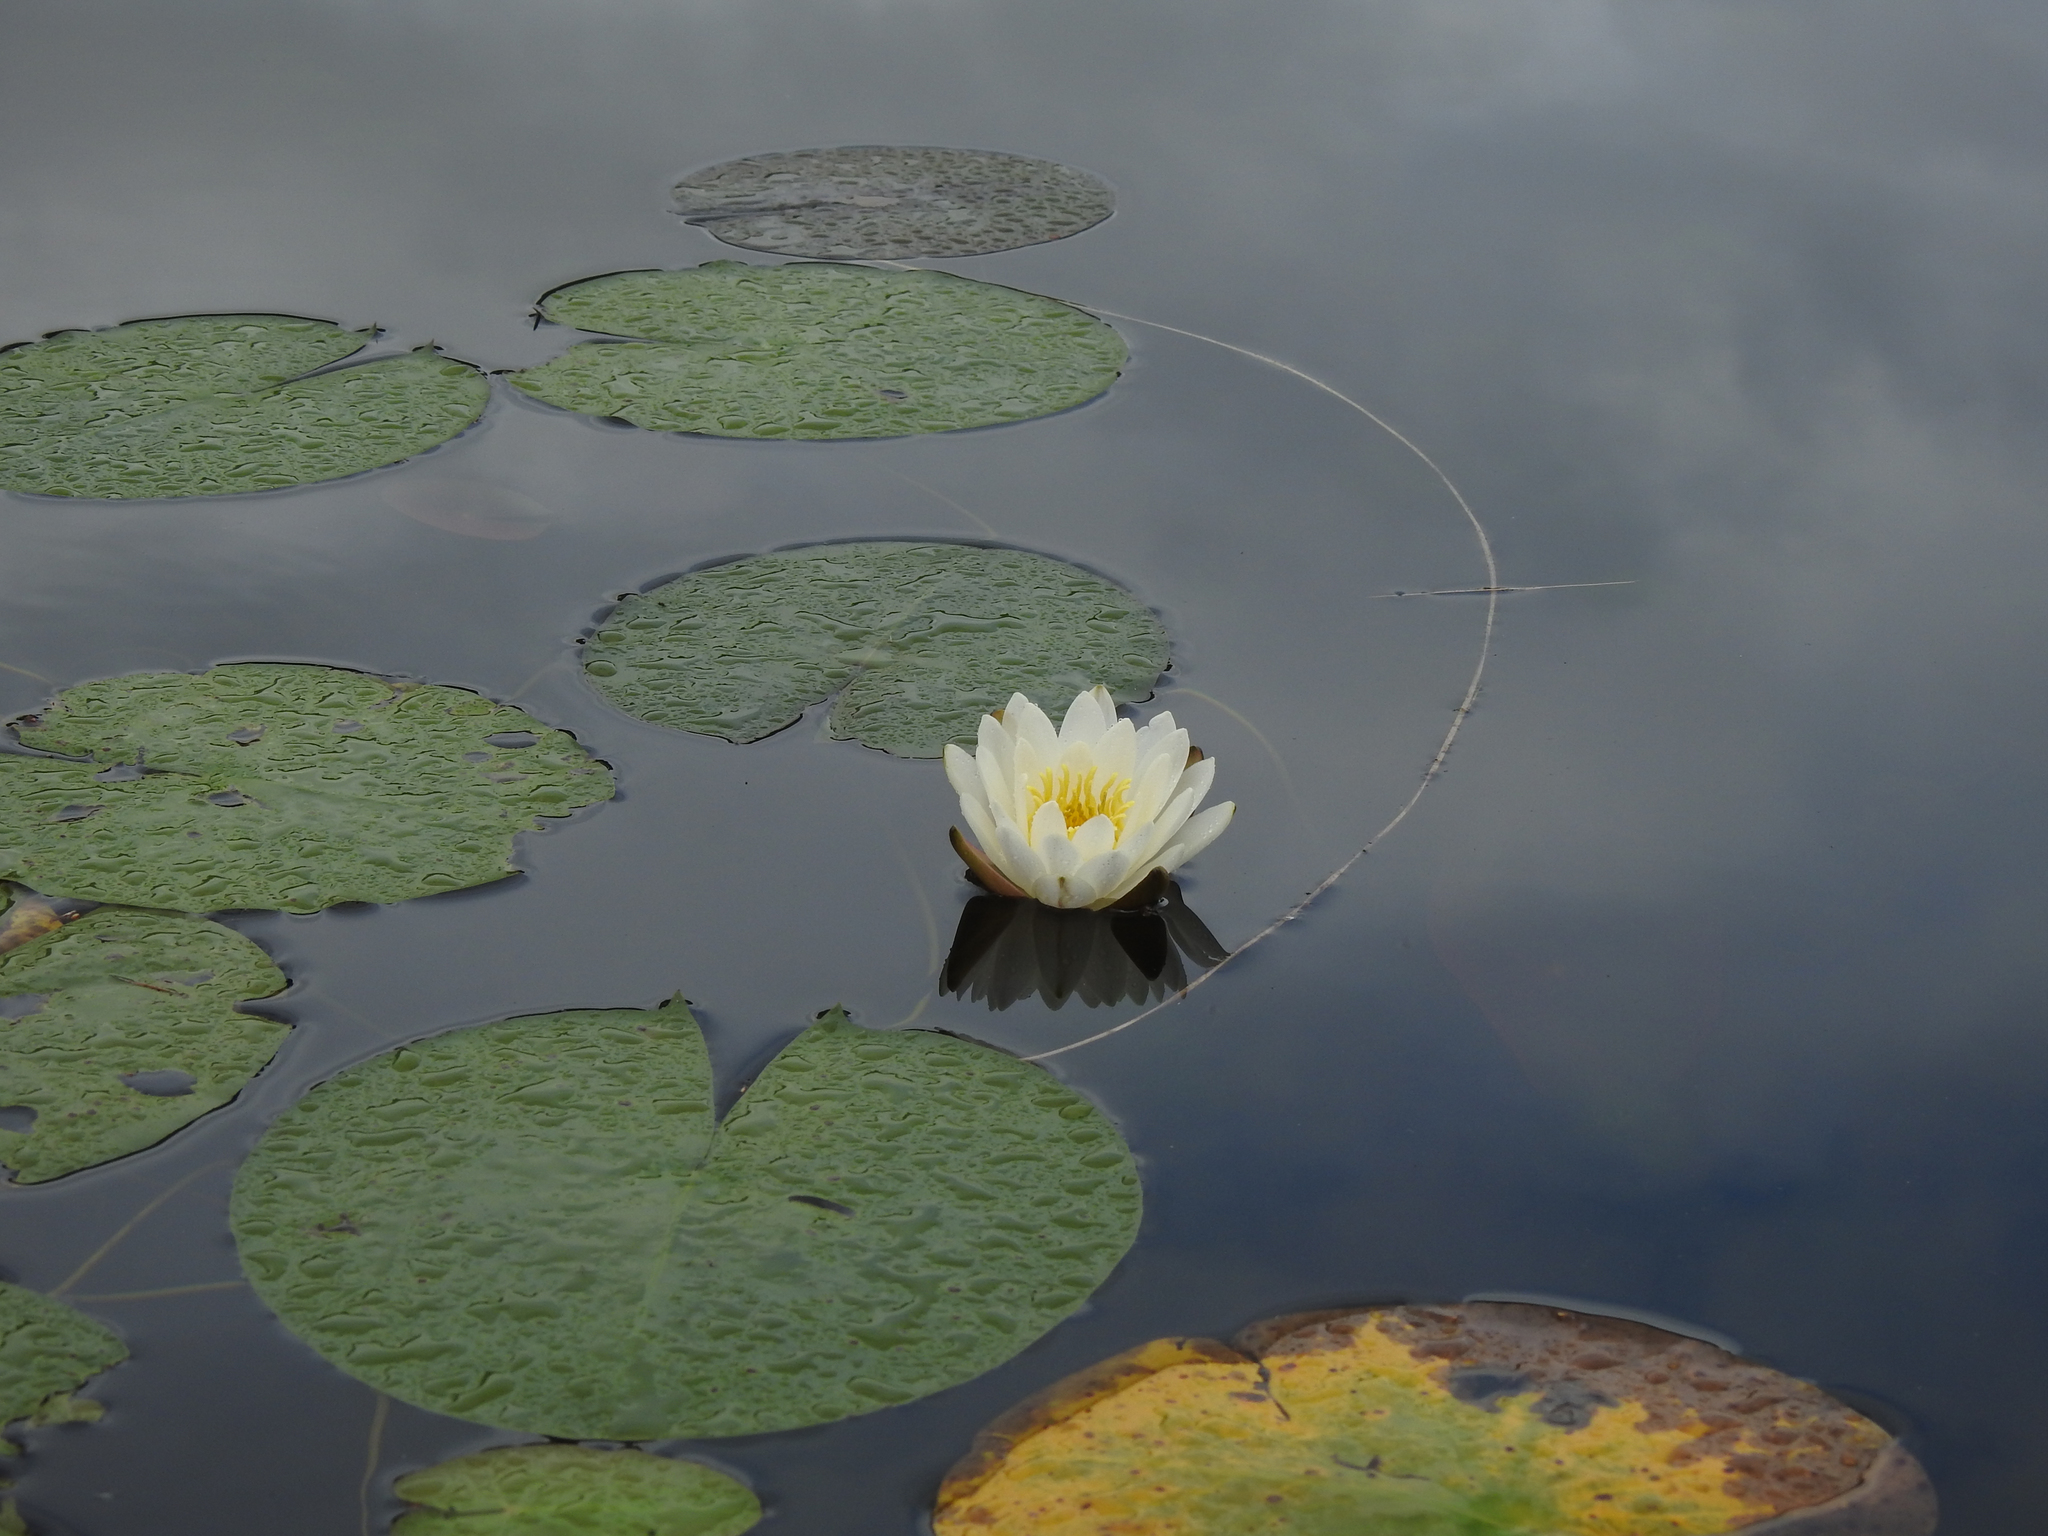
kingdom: Plantae
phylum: Tracheophyta
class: Magnoliopsida
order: Nymphaeales
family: Nymphaeaceae
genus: Nymphaea
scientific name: Nymphaea odorata
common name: Fragrant water-lily
